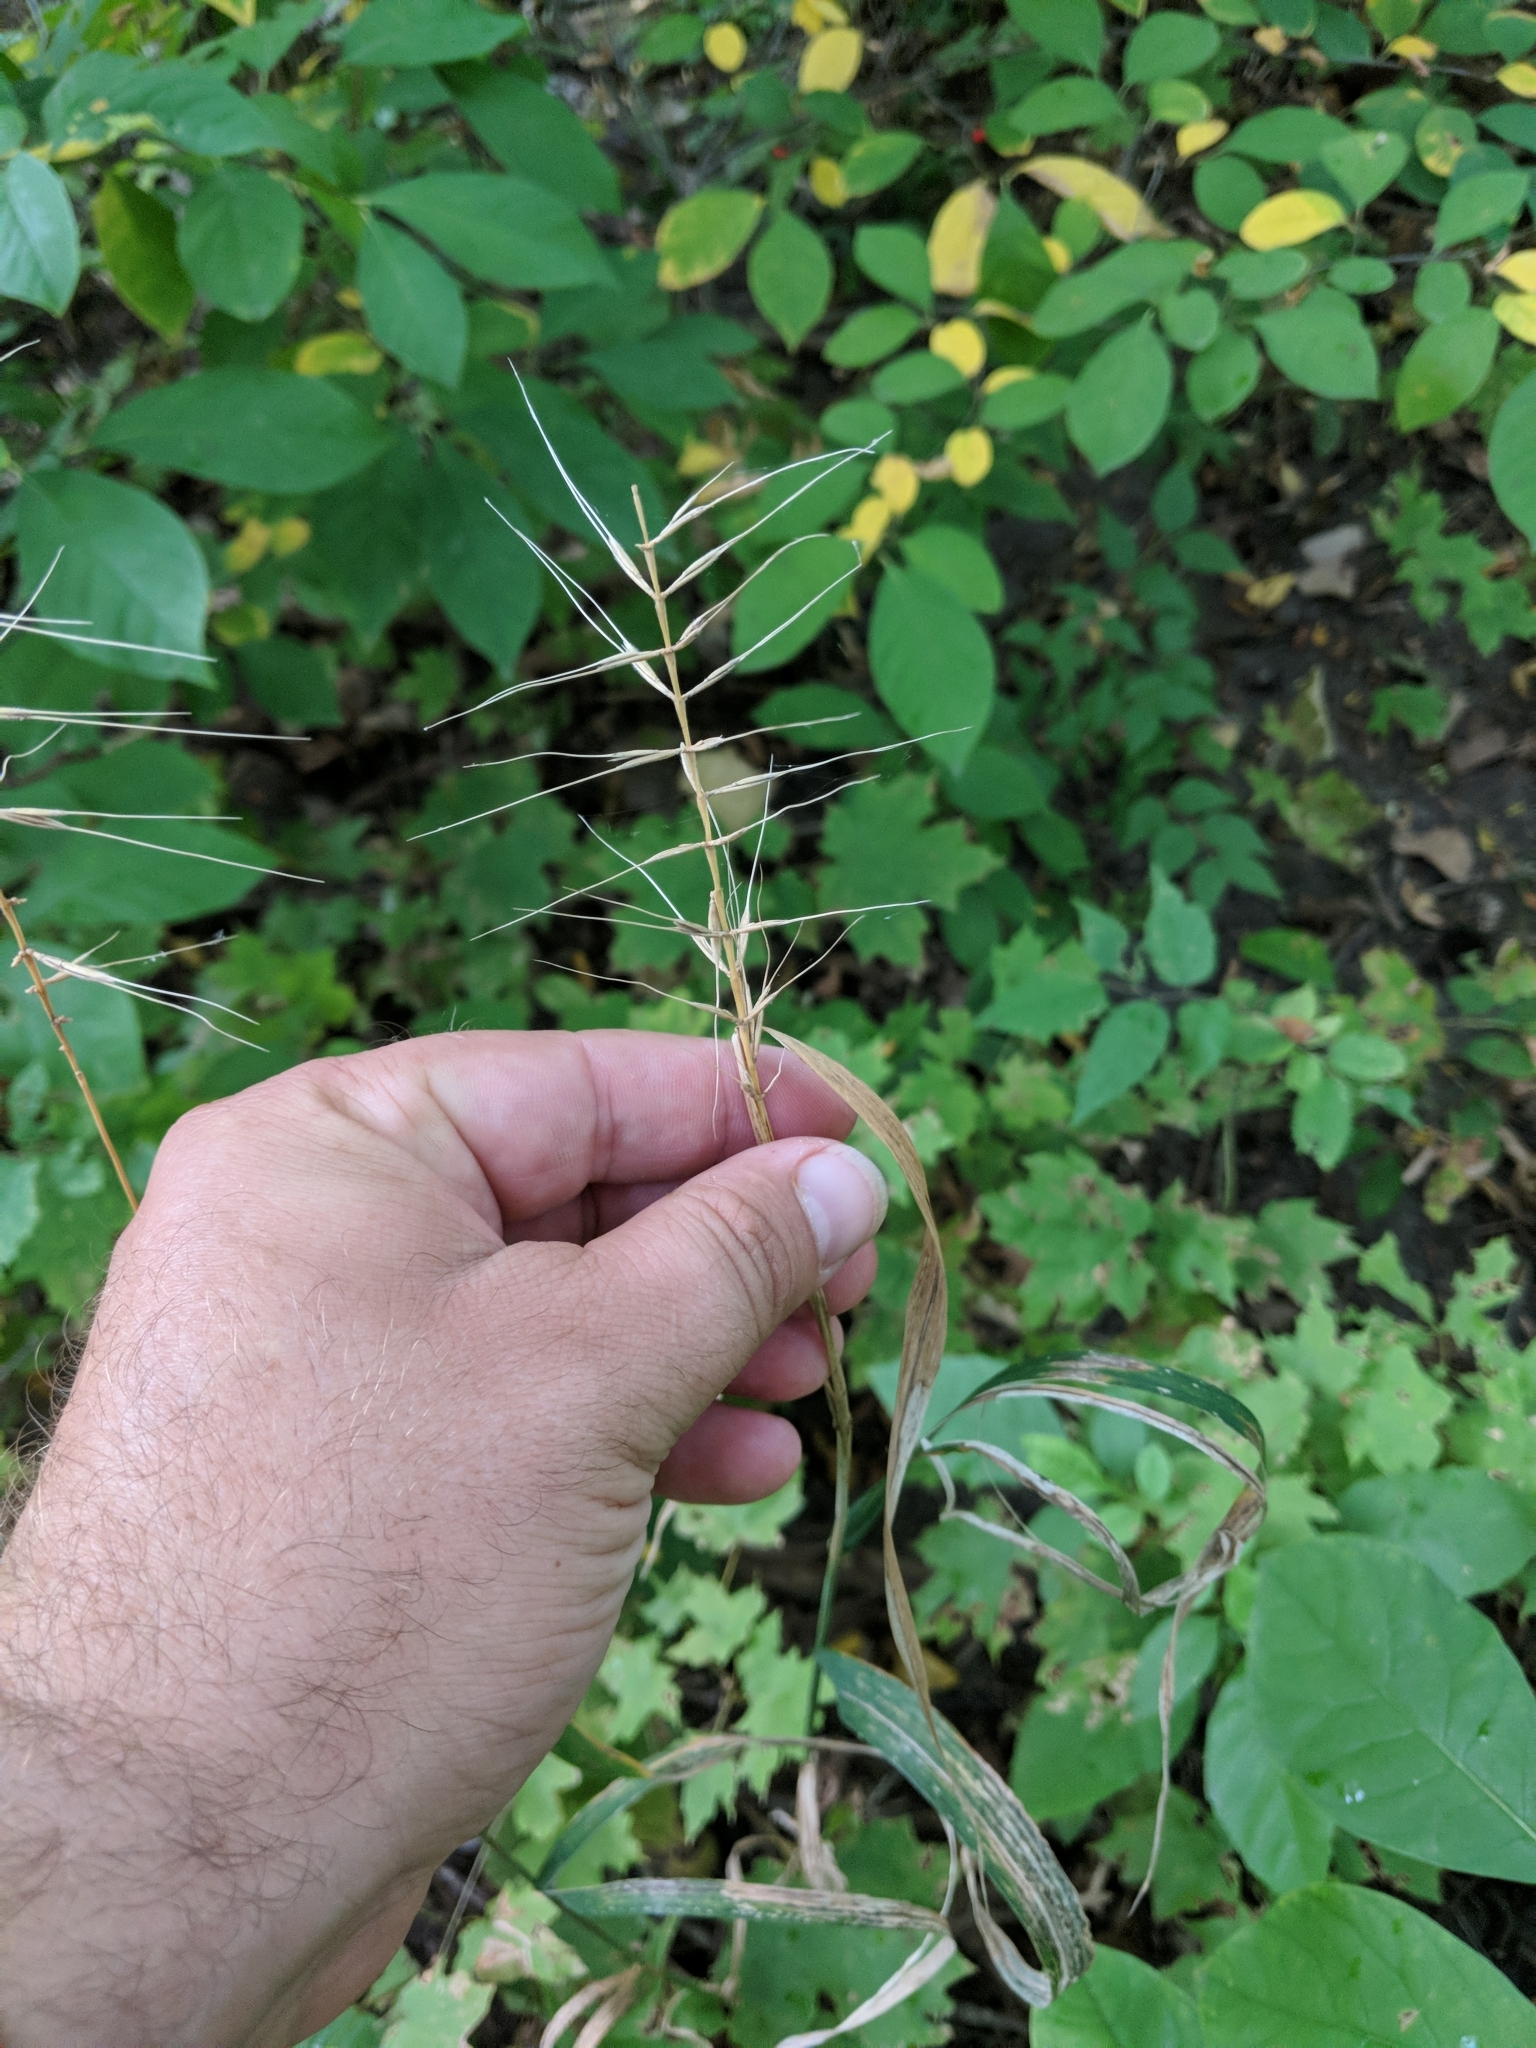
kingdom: Plantae
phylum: Tracheophyta
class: Liliopsida
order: Poales
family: Poaceae
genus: Elymus
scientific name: Elymus hystrix
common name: Bottlebrush grass
